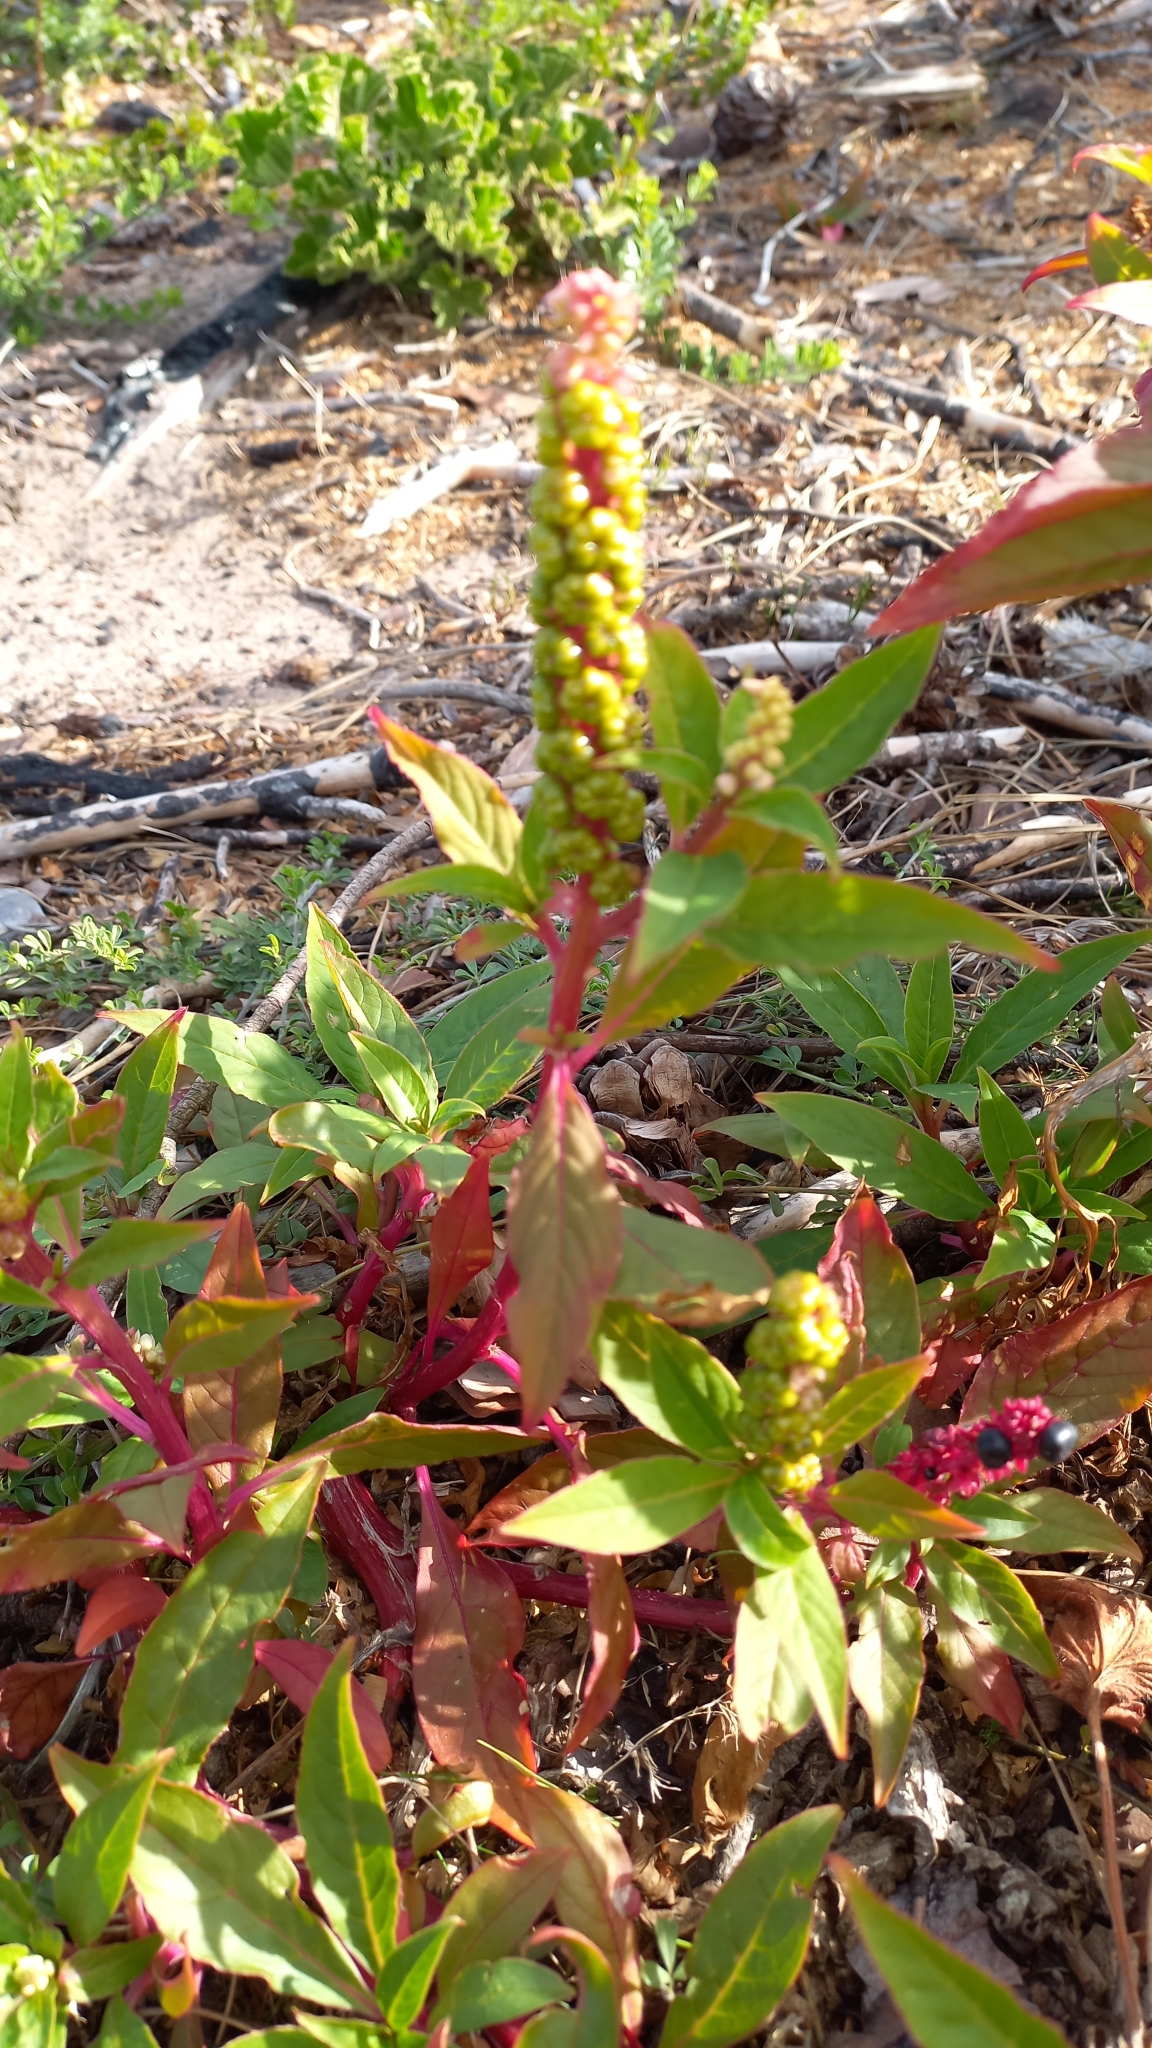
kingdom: Plantae
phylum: Tracheophyta
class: Magnoliopsida
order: Caryophyllales
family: Phytolaccaceae
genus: Phytolacca
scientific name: Phytolacca icosandra
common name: Button pokeweed
